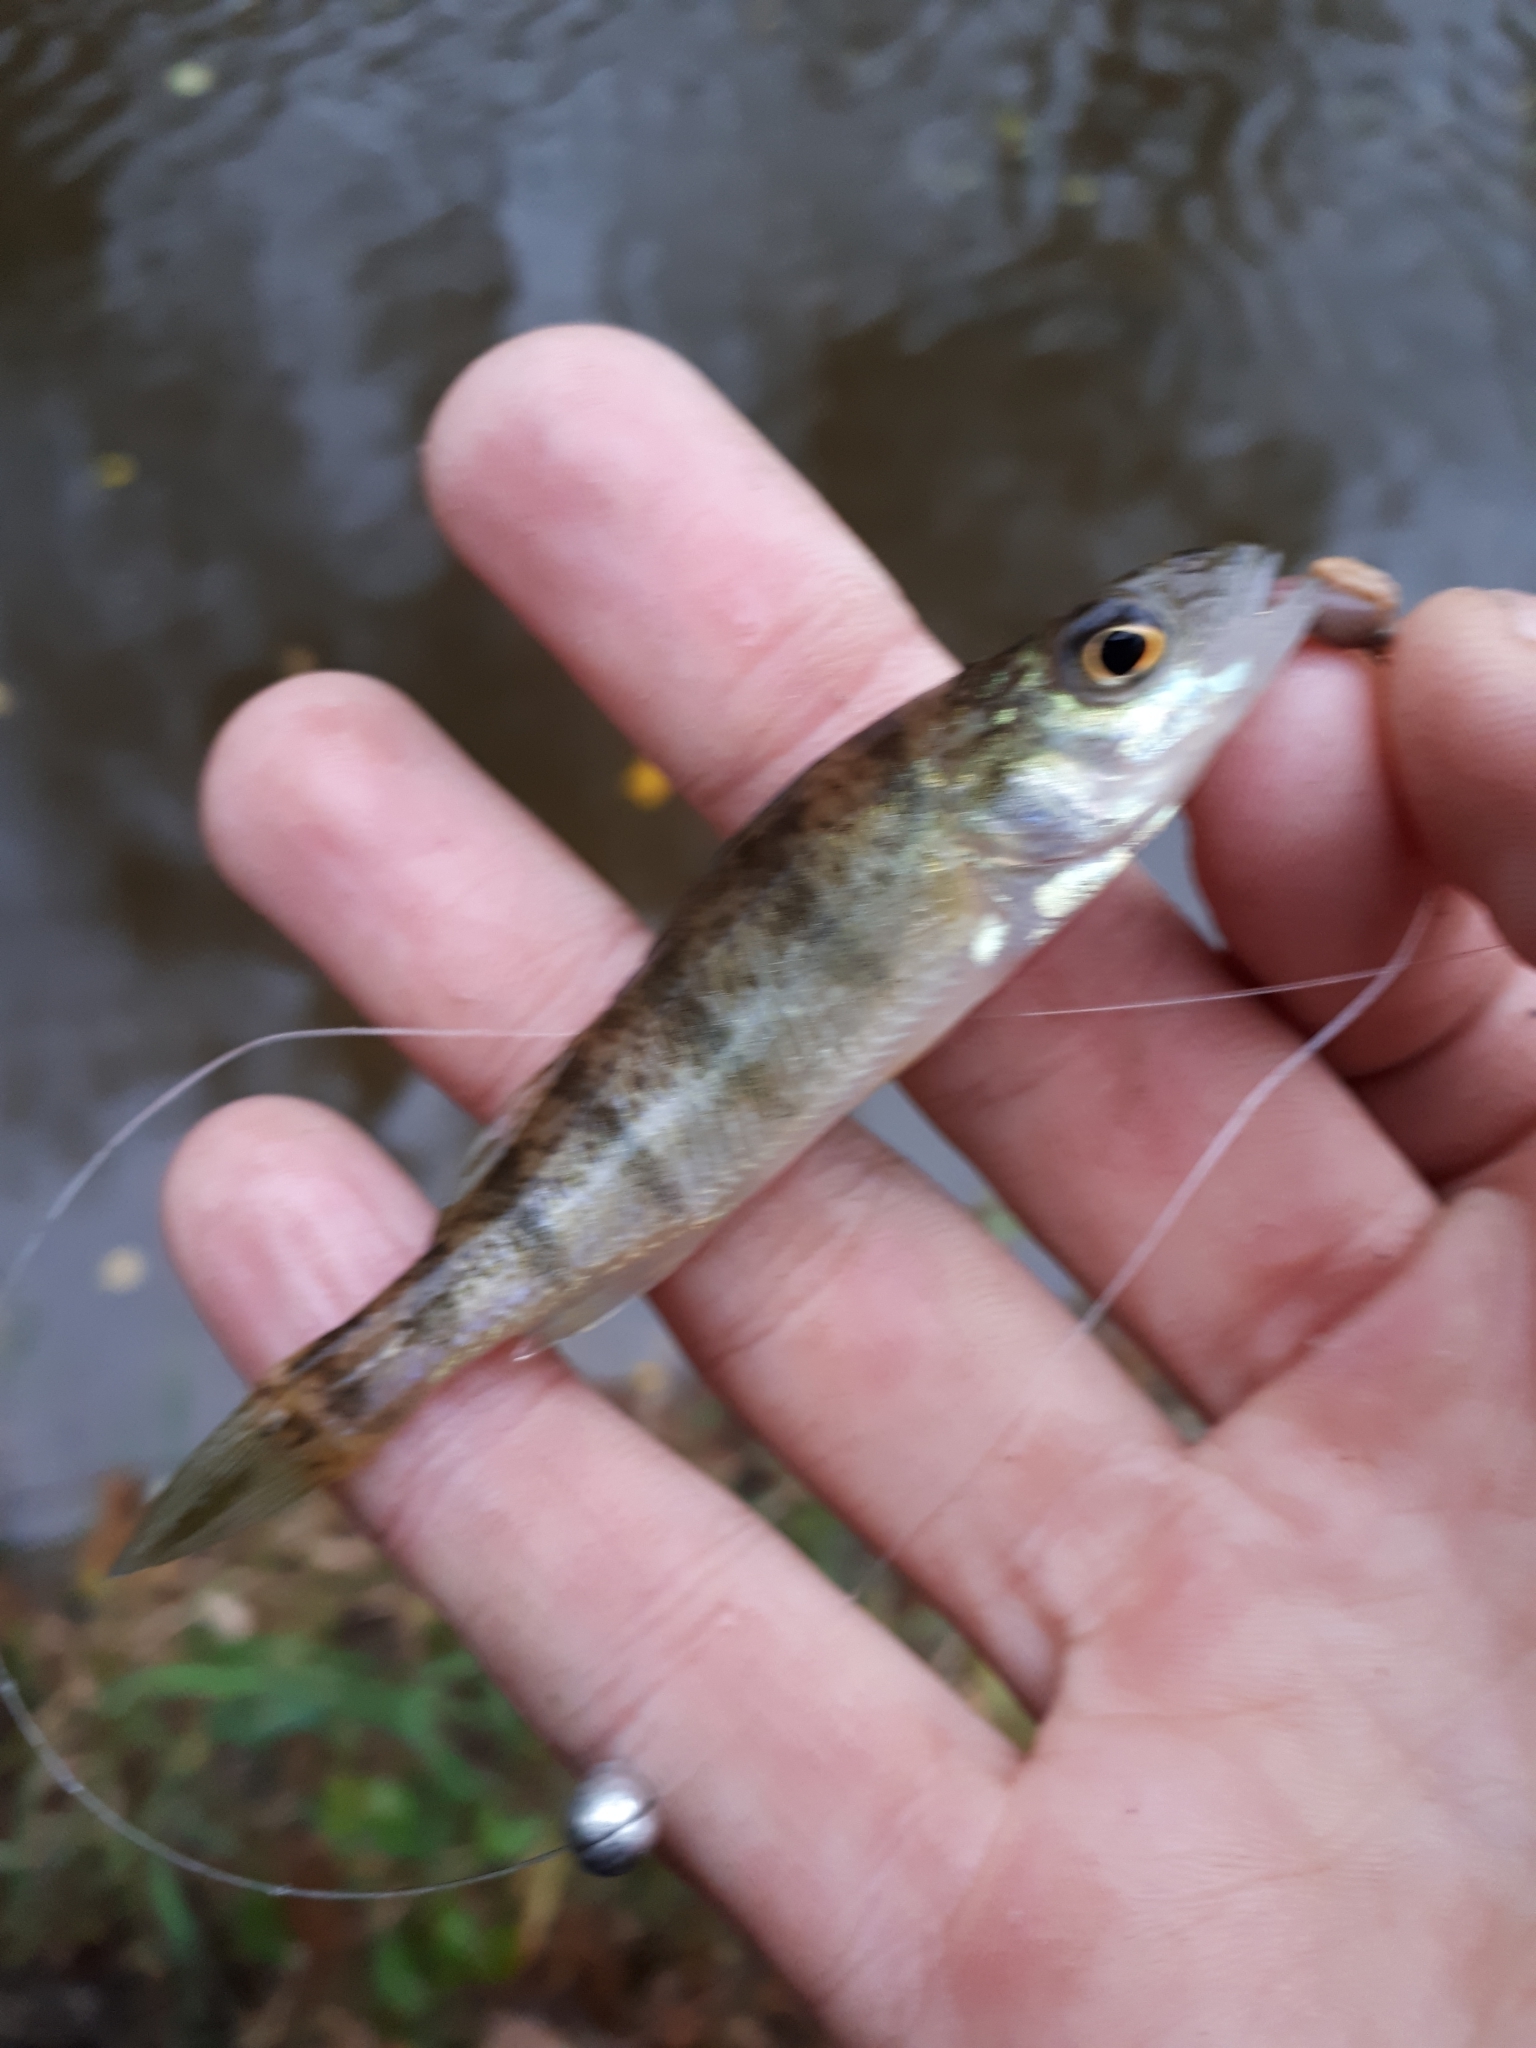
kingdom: Animalia
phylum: Chordata
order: Perciformes
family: Percidae
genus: Perca
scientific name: Perca flavescens
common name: Yellow perch
